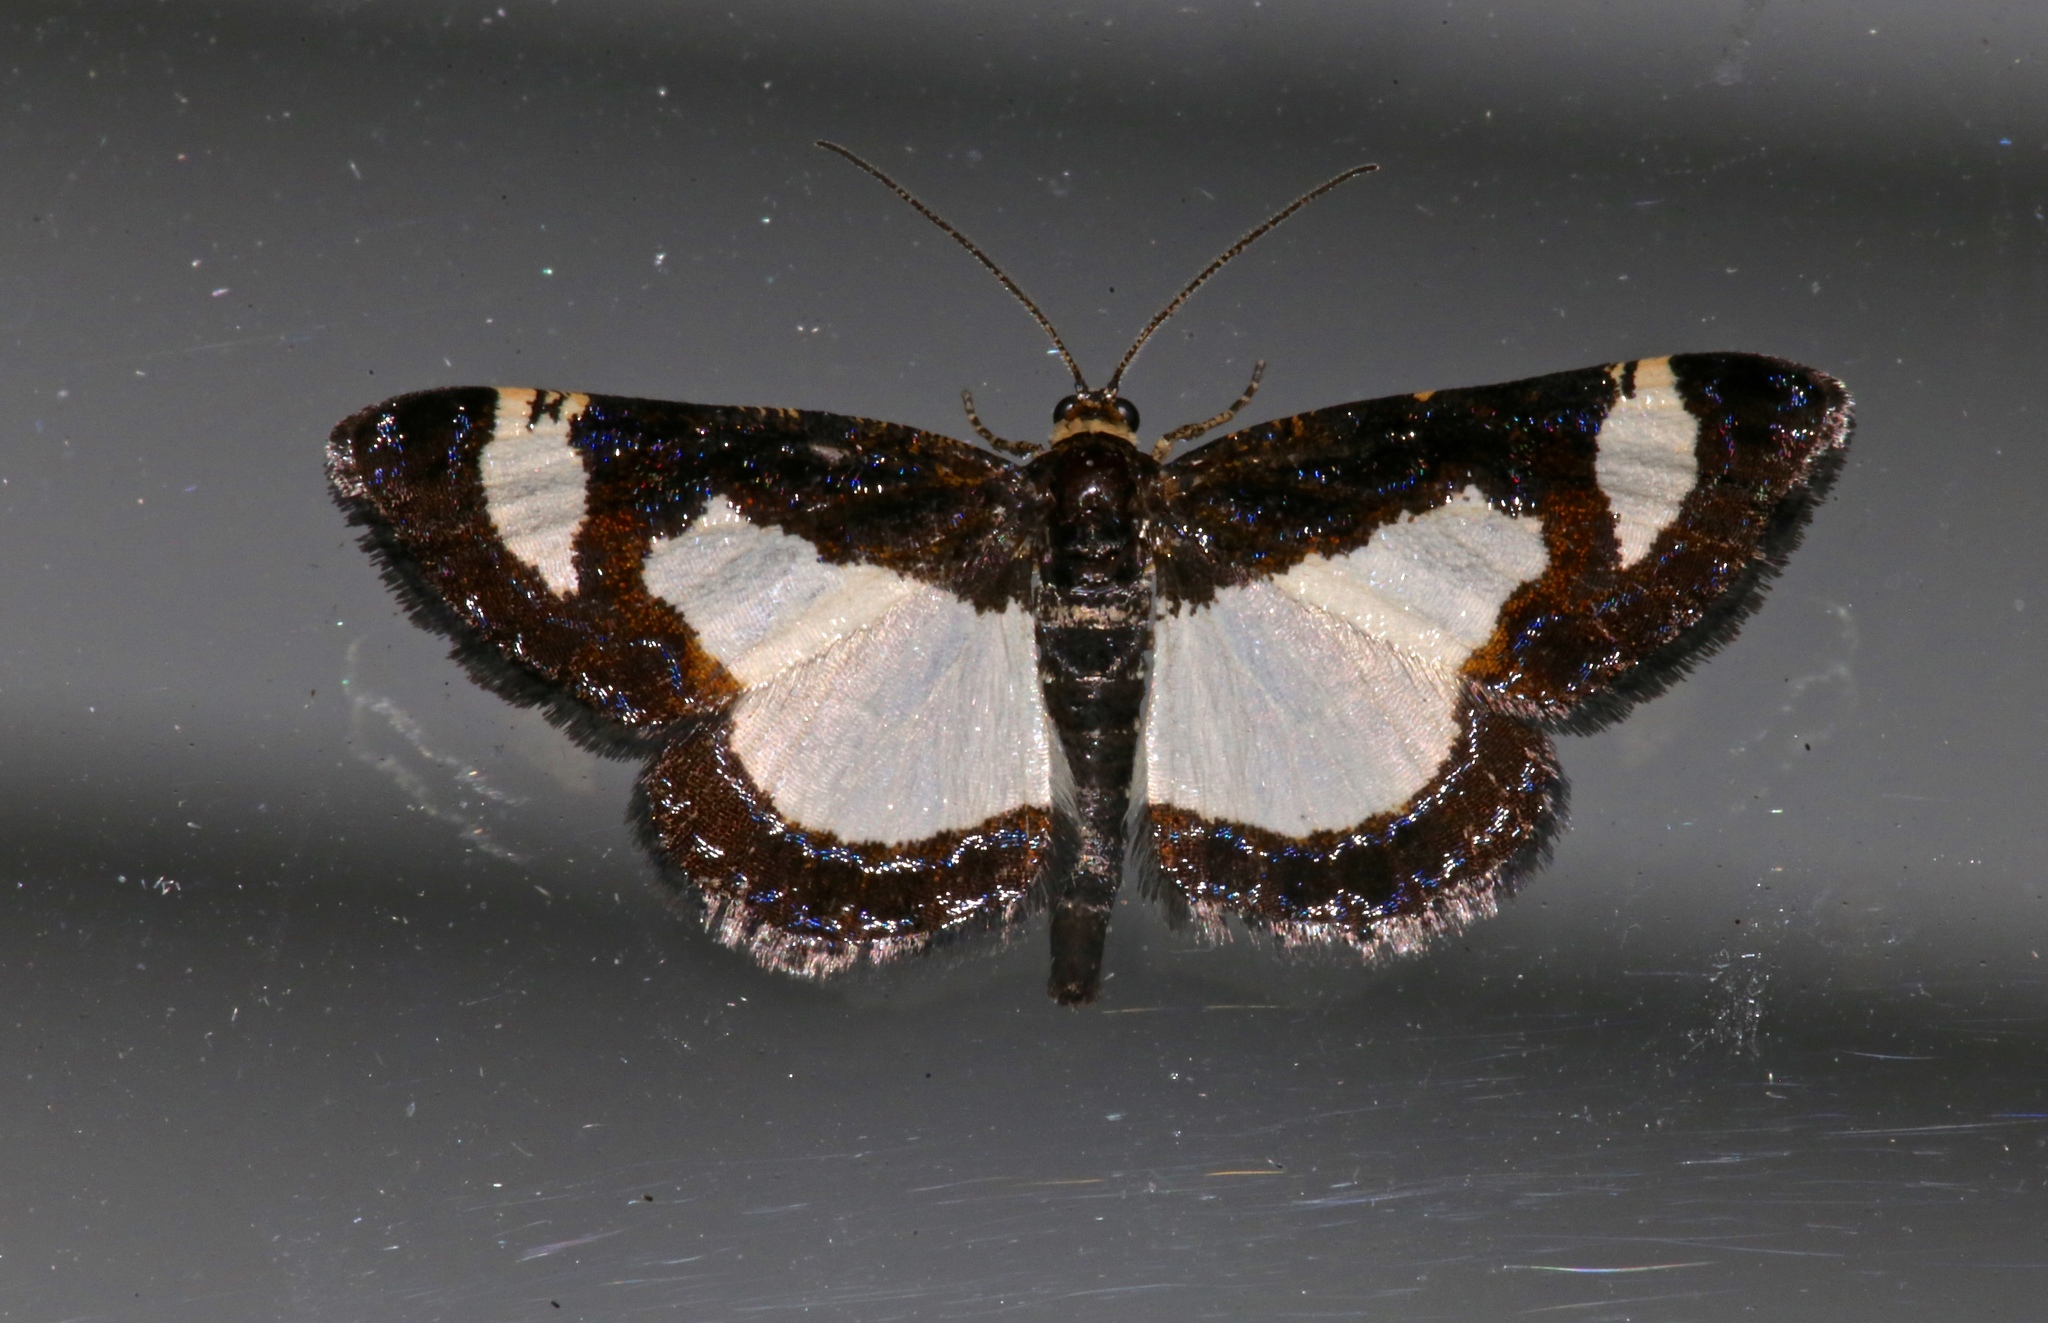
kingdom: Animalia
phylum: Arthropoda
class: Insecta
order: Lepidoptera
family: Geometridae
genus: Heliomata
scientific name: Heliomata cycladata
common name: Common spring moth
